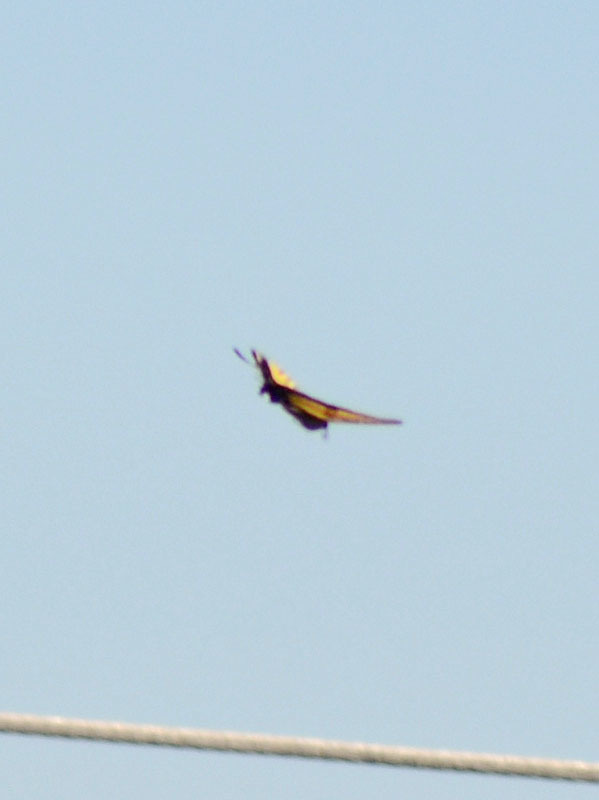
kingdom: Animalia
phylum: Arthropoda
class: Insecta
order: Lepidoptera
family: Papilionidae
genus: Papilio
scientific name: Papilio multicaudata
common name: Two-tailed tiger swallowtail
